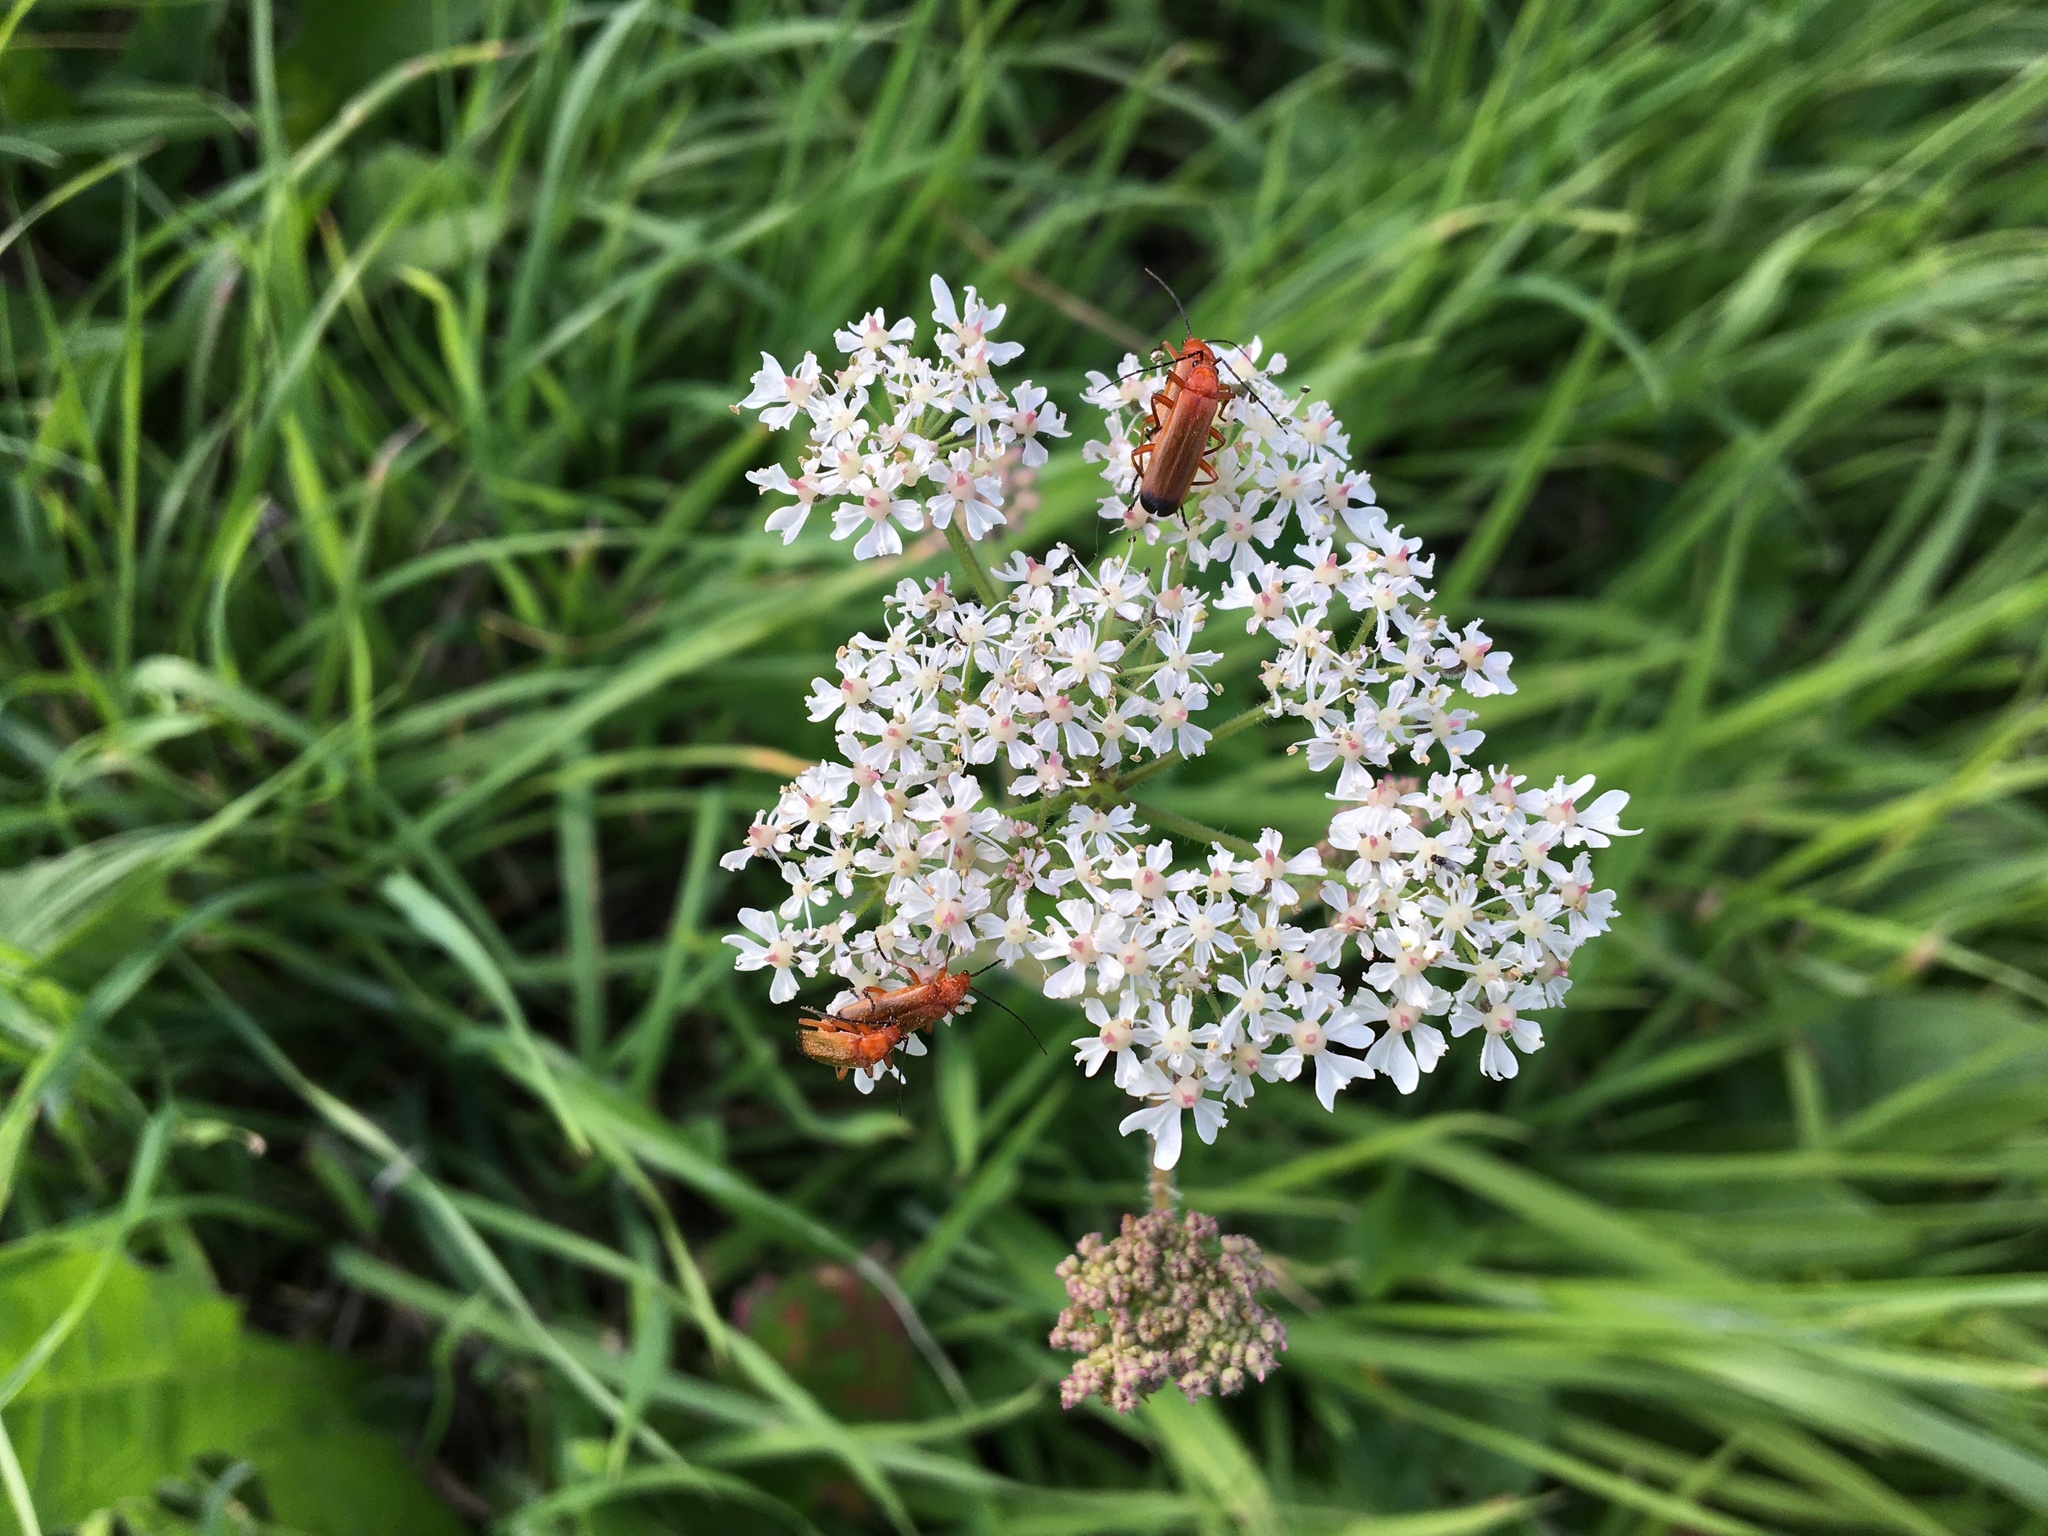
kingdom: Animalia
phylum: Arthropoda
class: Insecta
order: Coleoptera
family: Cantharidae
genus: Rhagonycha
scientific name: Rhagonycha fulva
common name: Common red soldier beetle
